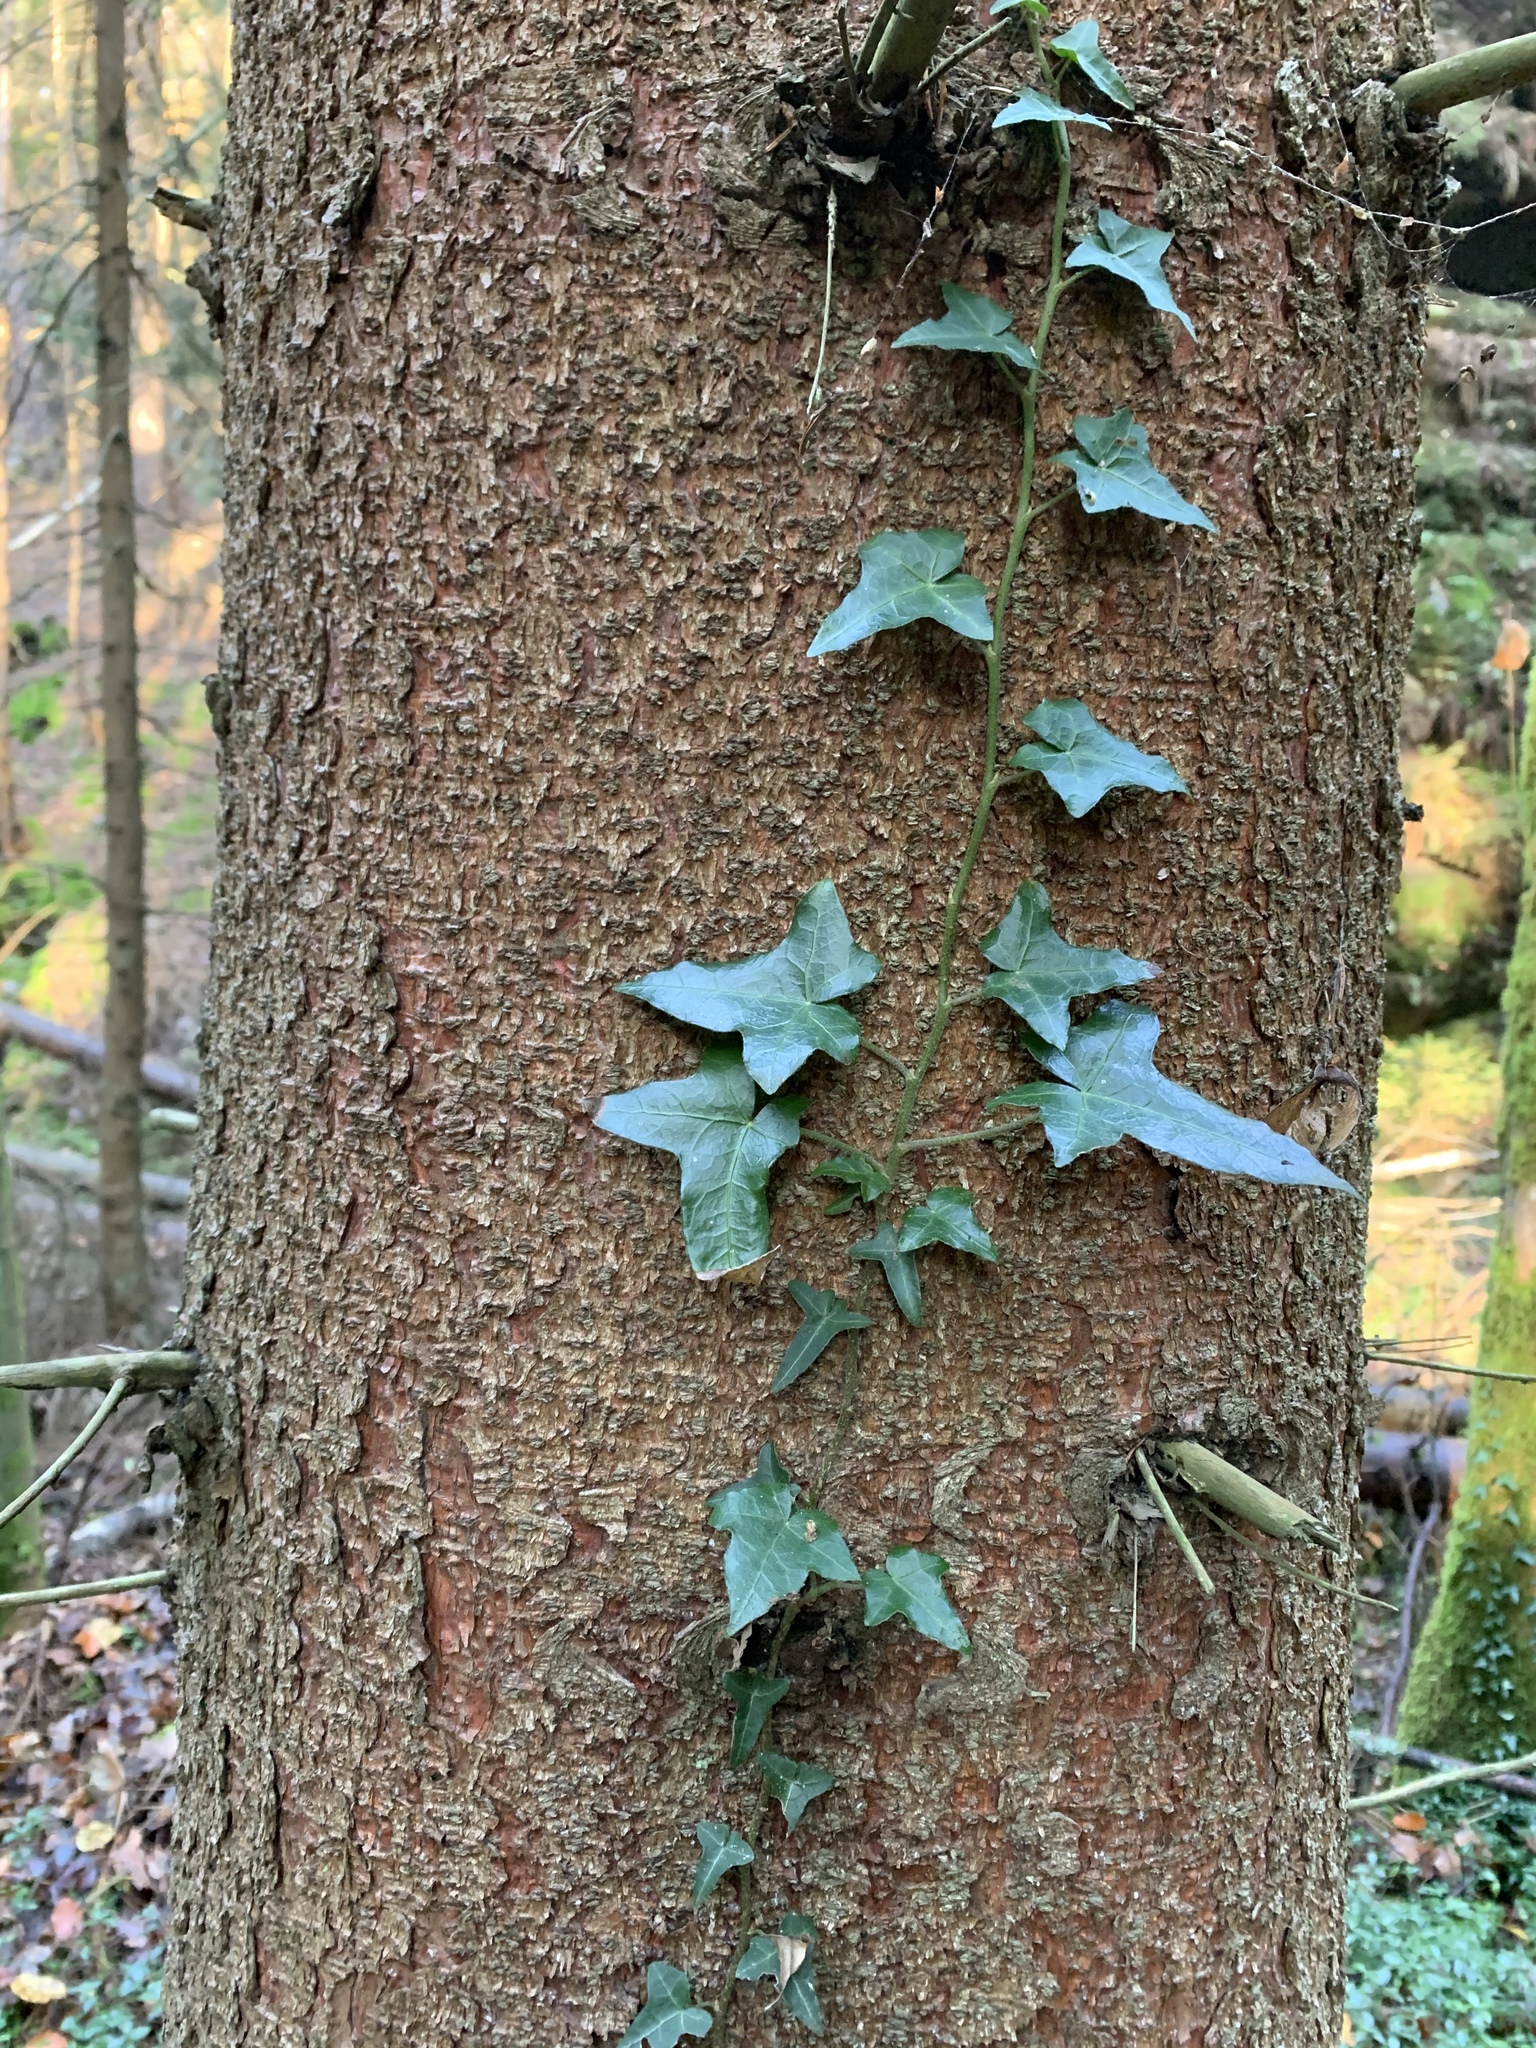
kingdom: Plantae
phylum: Tracheophyta
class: Magnoliopsida
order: Apiales
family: Araliaceae
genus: Hedera
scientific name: Hedera helix
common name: Ivy
